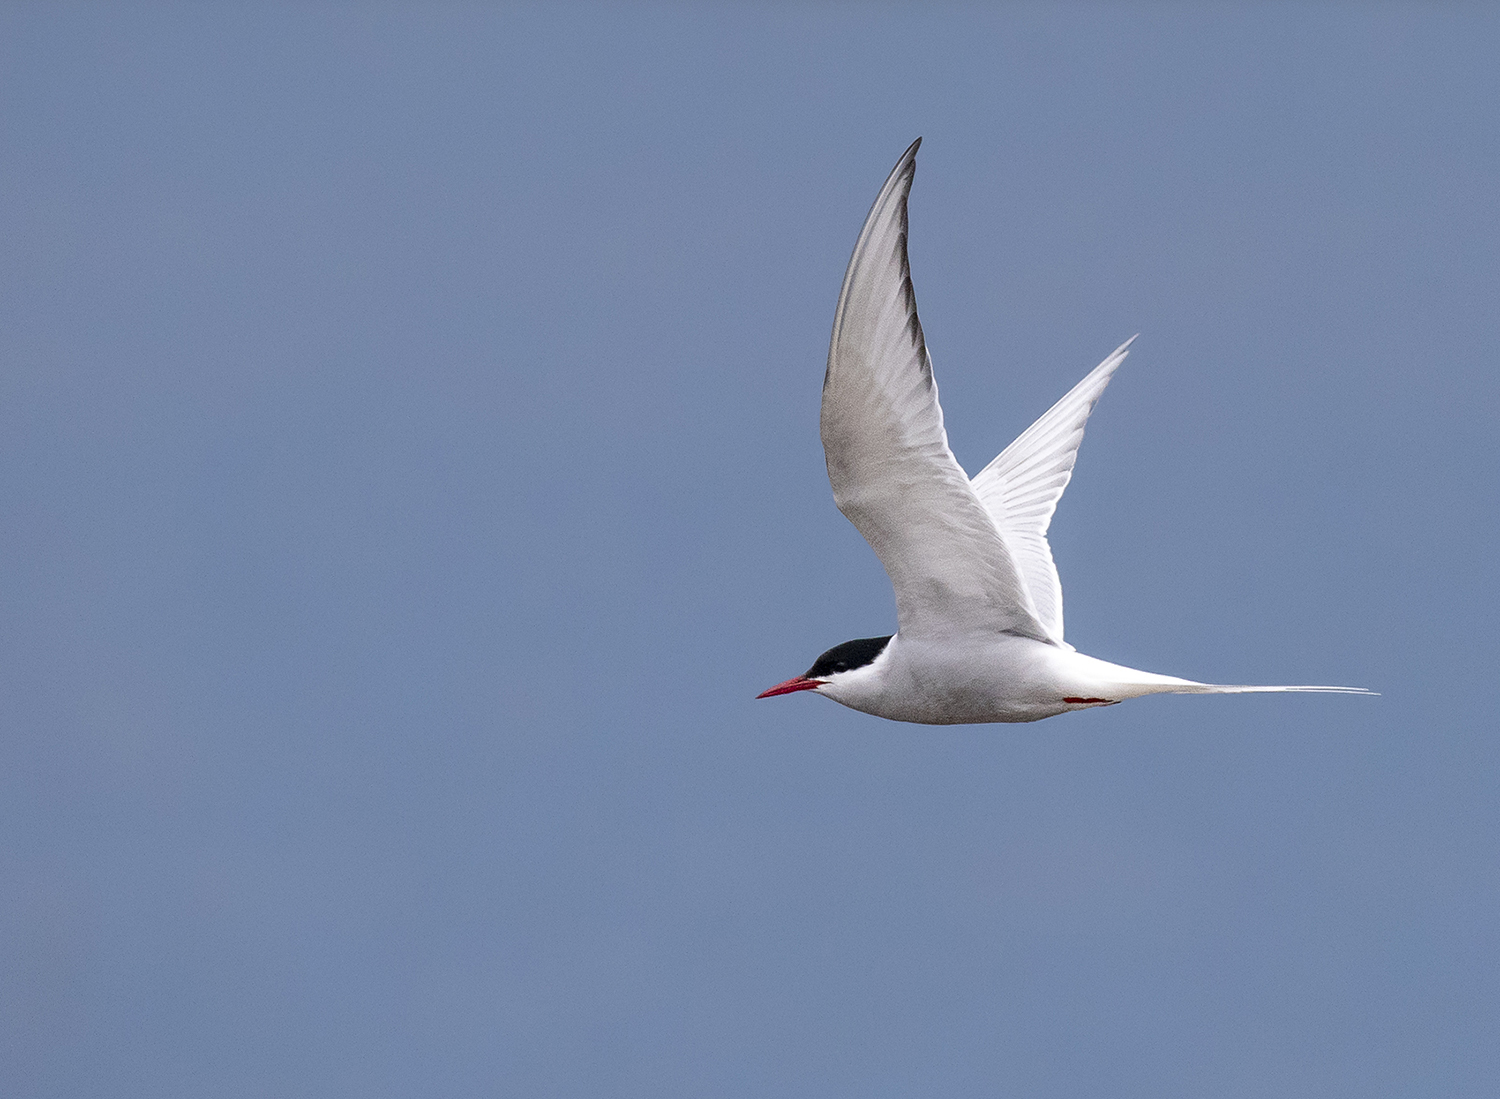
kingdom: Animalia
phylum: Chordata
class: Aves
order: Charadriiformes
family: Laridae
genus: Sterna
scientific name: Sterna paradisaea
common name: Arctic tern
